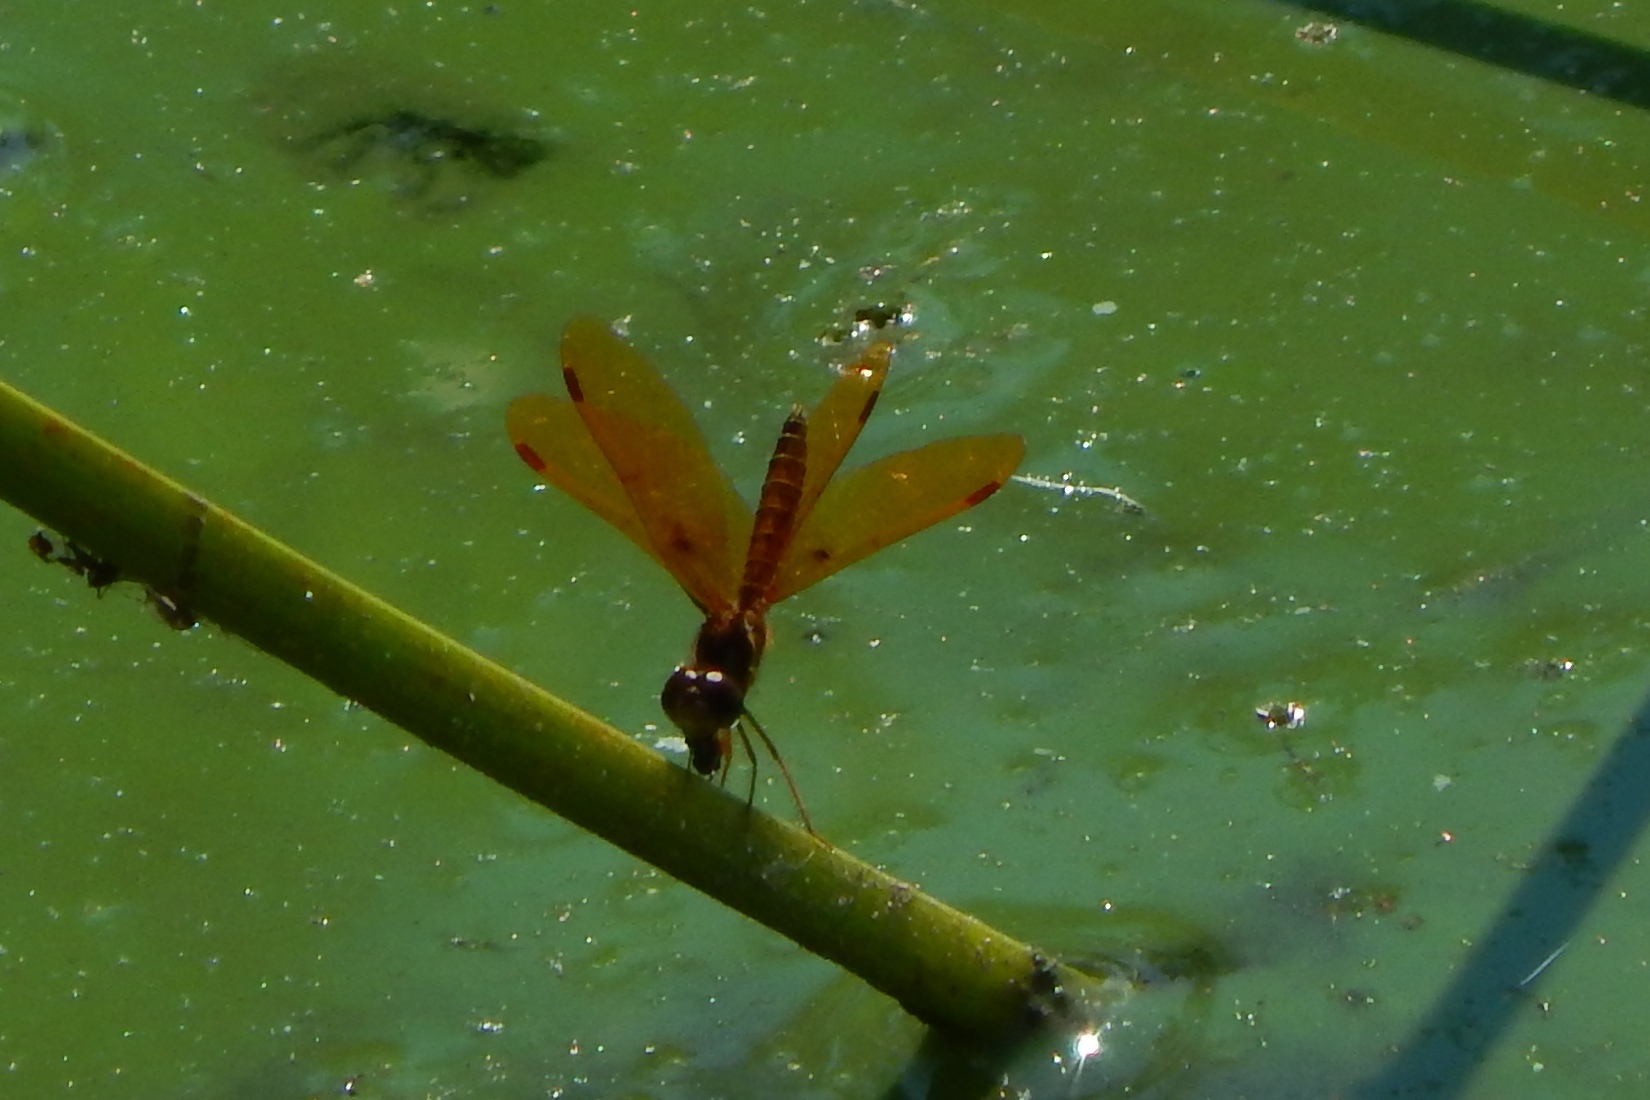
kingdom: Animalia
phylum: Arthropoda
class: Insecta
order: Odonata
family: Libellulidae
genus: Perithemis
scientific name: Perithemis tenera
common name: Eastern amberwing
